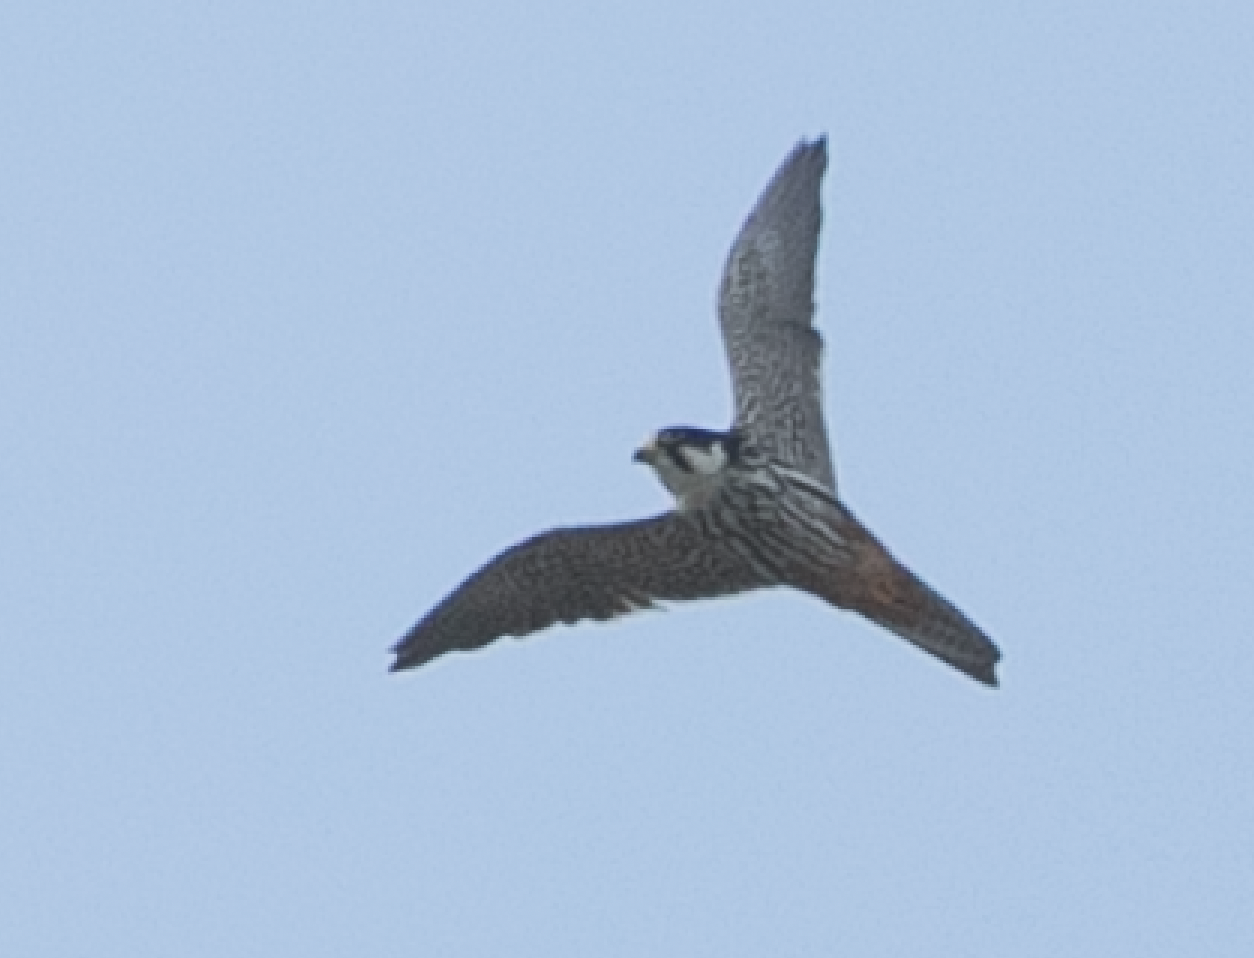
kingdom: Animalia
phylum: Chordata
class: Aves
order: Falconiformes
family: Falconidae
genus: Falco
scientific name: Falco subbuteo
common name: Eurasian hobby
